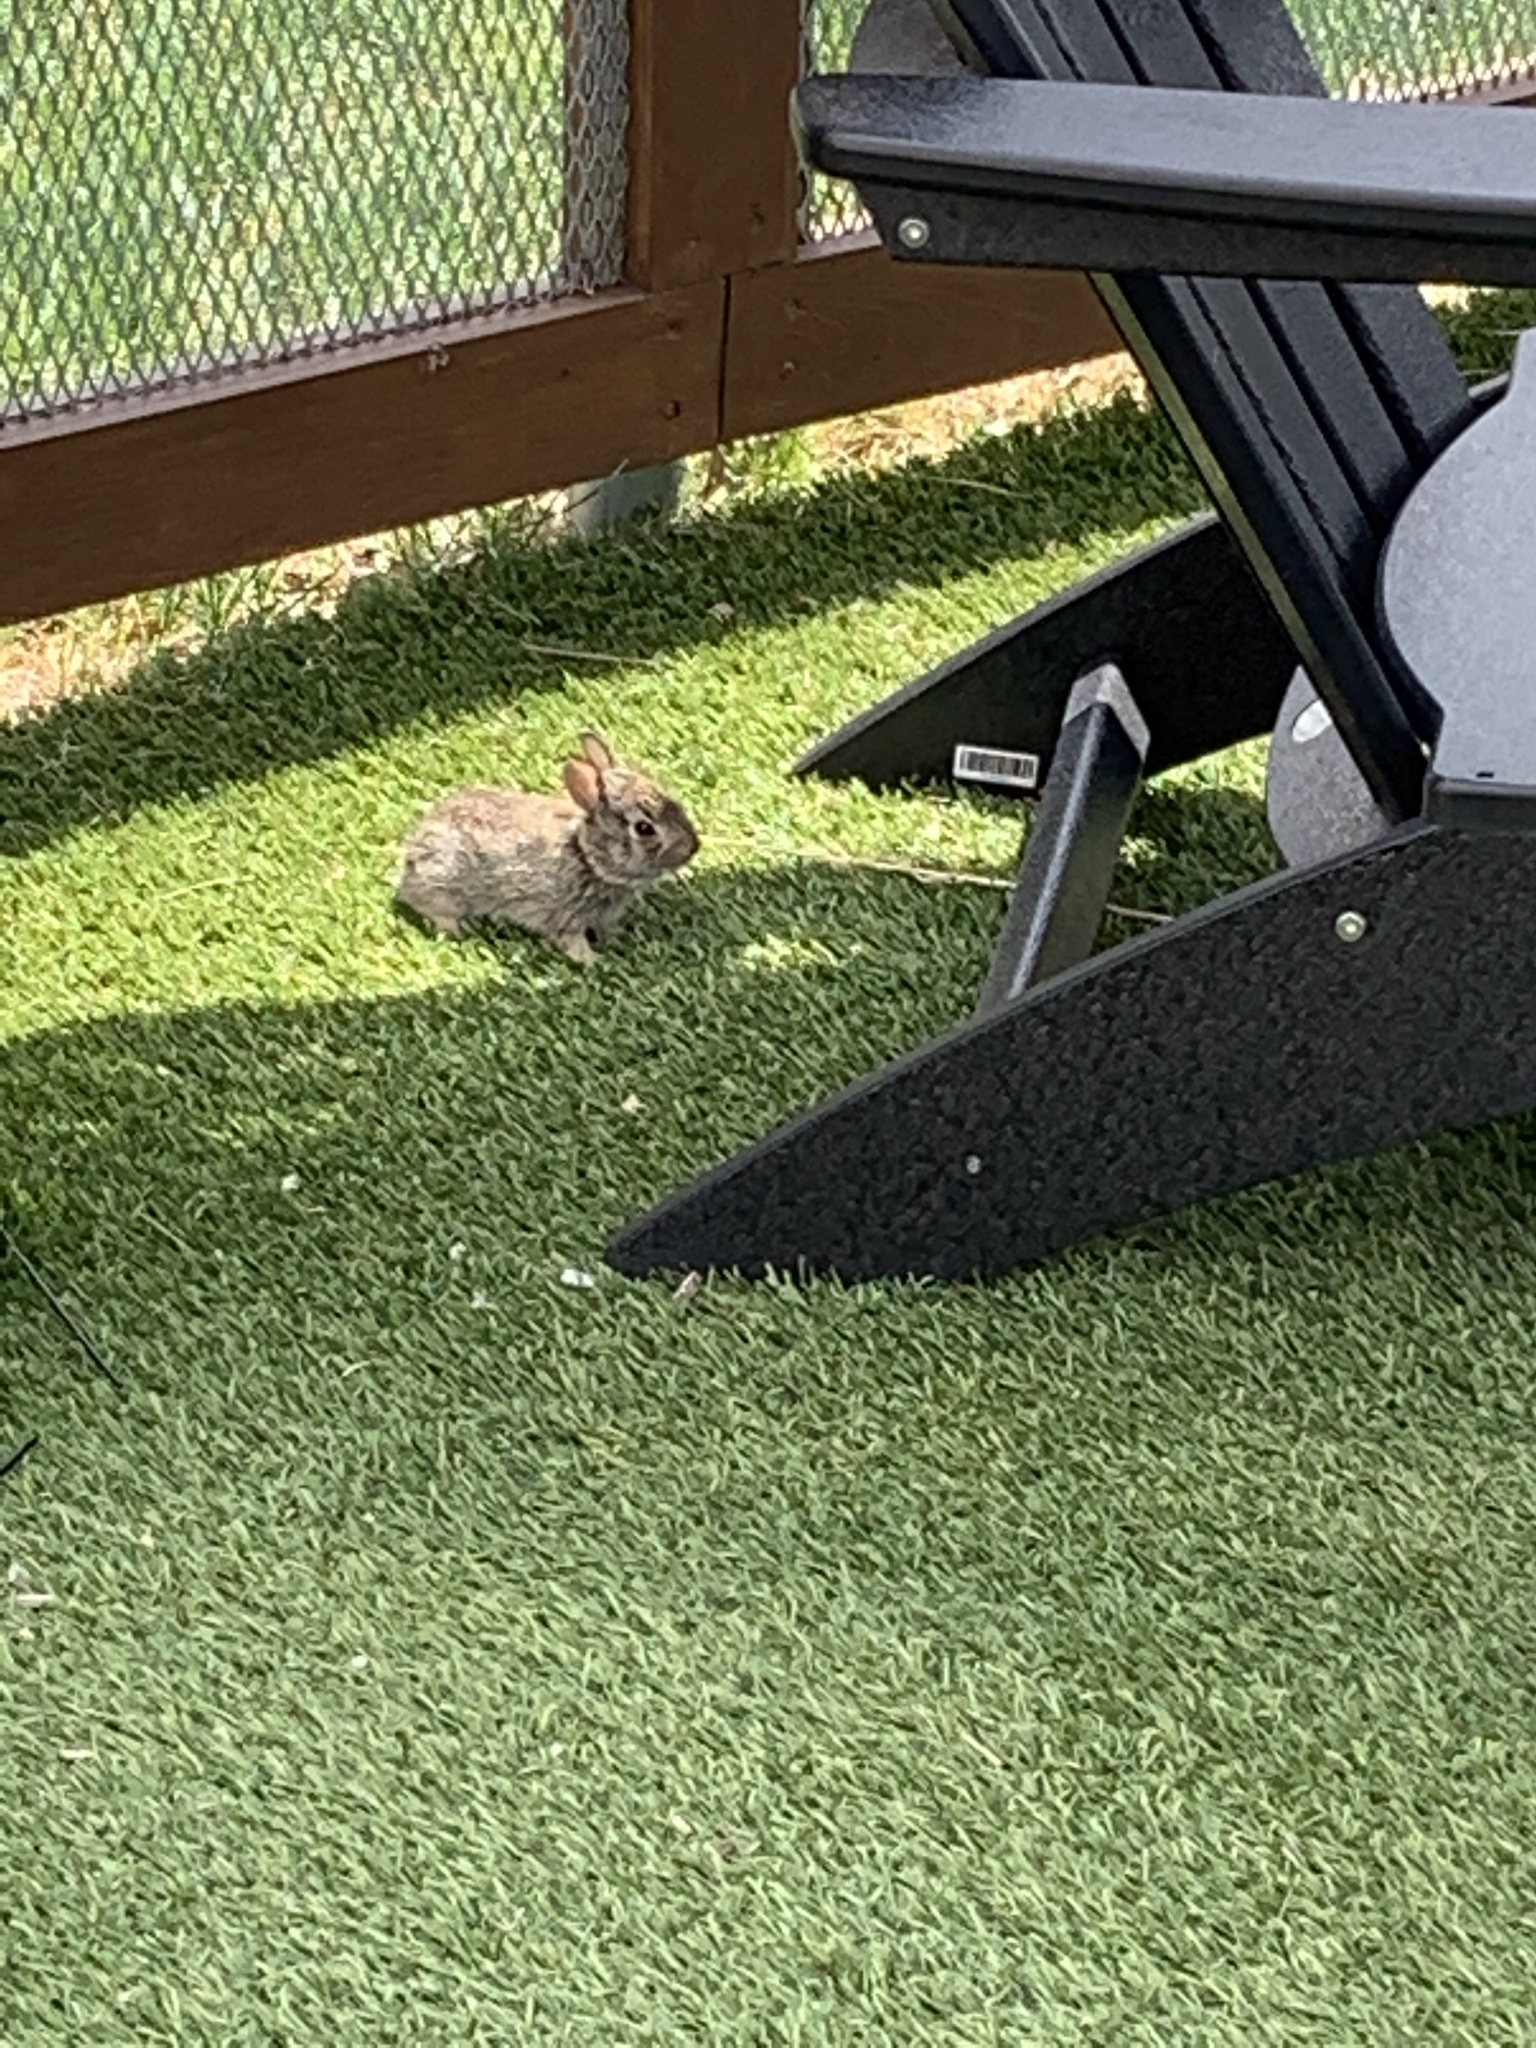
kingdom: Animalia
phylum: Chordata
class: Mammalia
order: Lagomorpha
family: Leporidae
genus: Sylvilagus
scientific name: Sylvilagus floridanus
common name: Eastern cottontail
